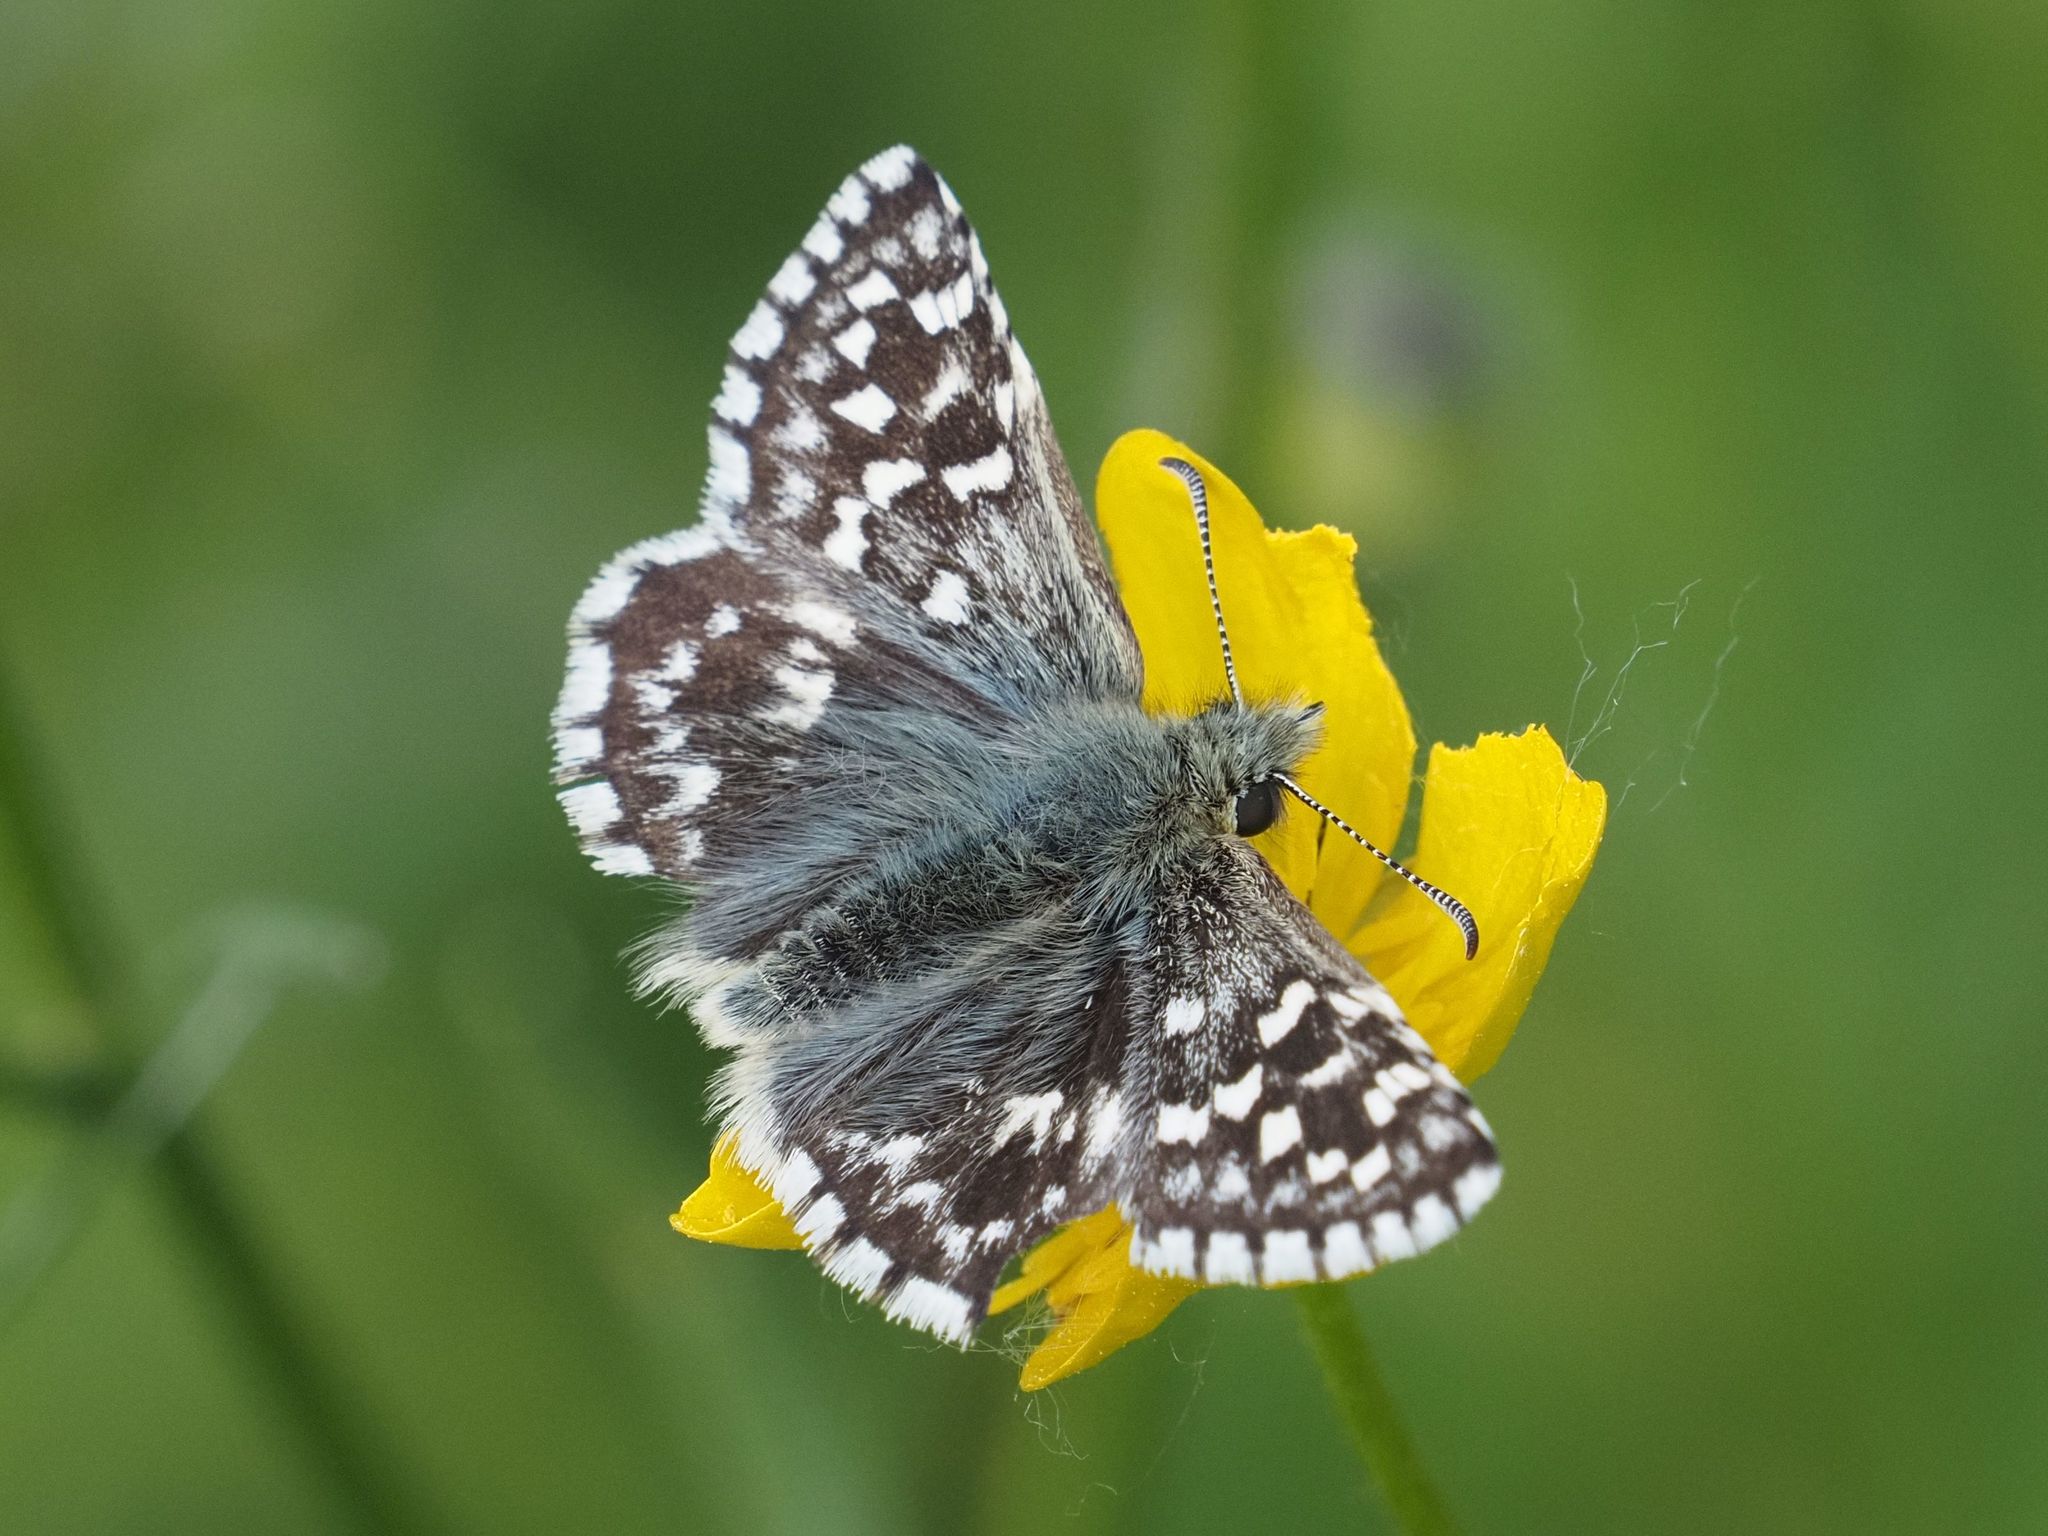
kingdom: Animalia
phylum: Arthropoda
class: Insecta
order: Lepidoptera
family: Hesperiidae
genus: Pyrgus
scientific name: Pyrgus malvae
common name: Grizzled skipper
